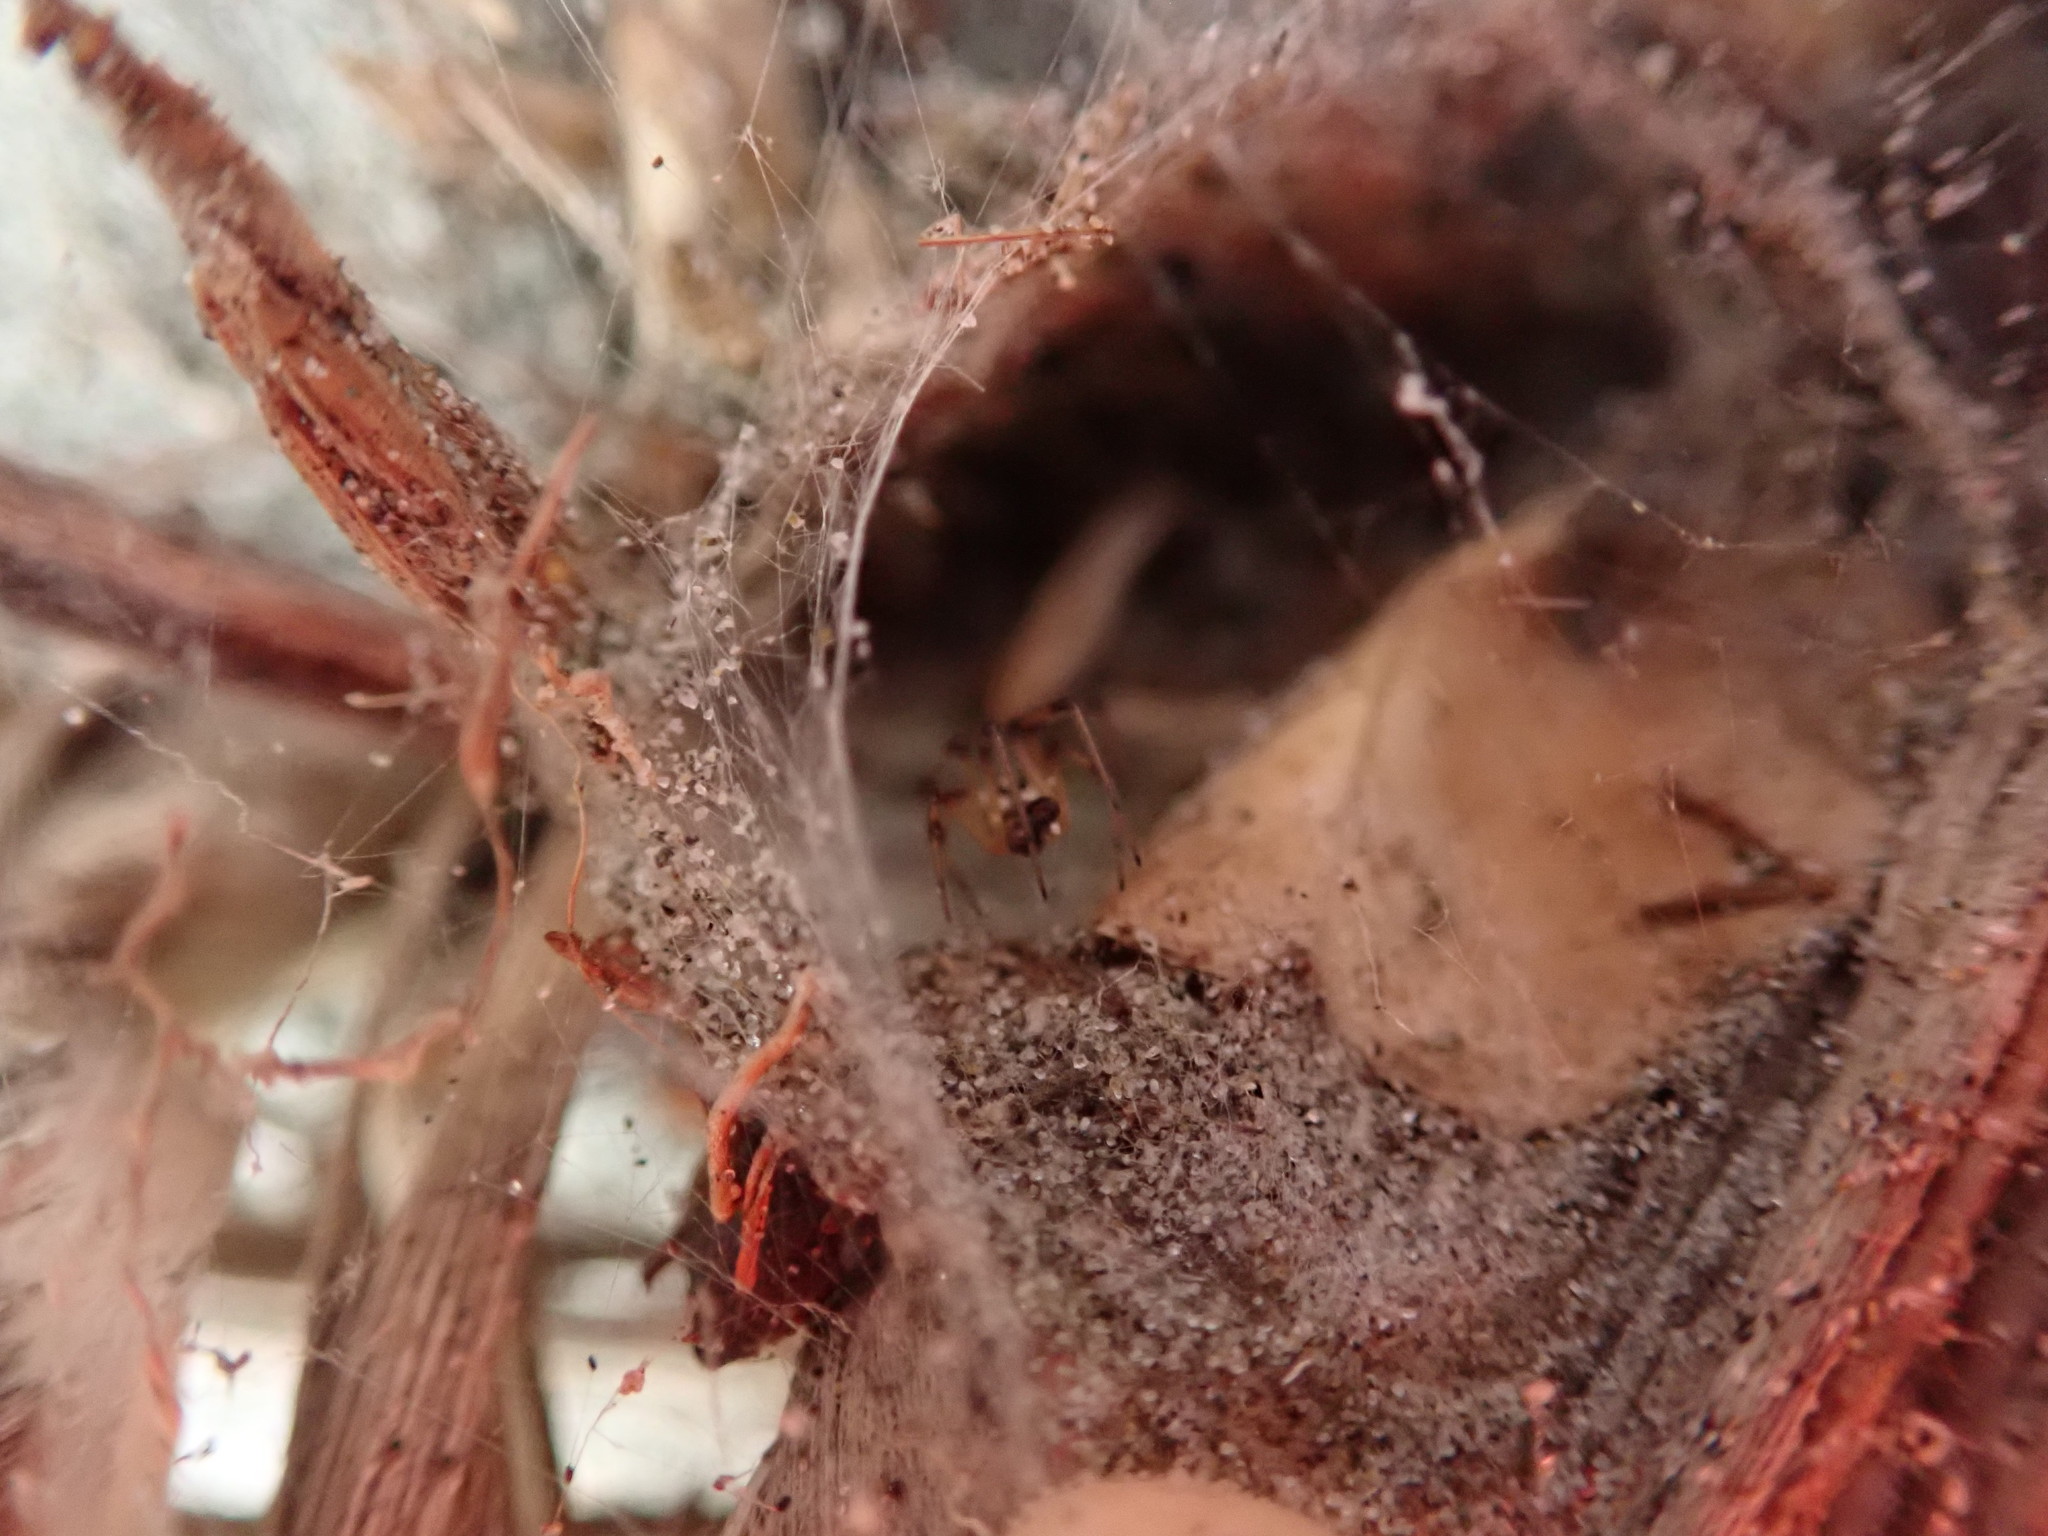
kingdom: Animalia
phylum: Arthropoda
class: Arachnida
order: Araneae
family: Theridiidae
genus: Latrodectus
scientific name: Latrodectus katipo
